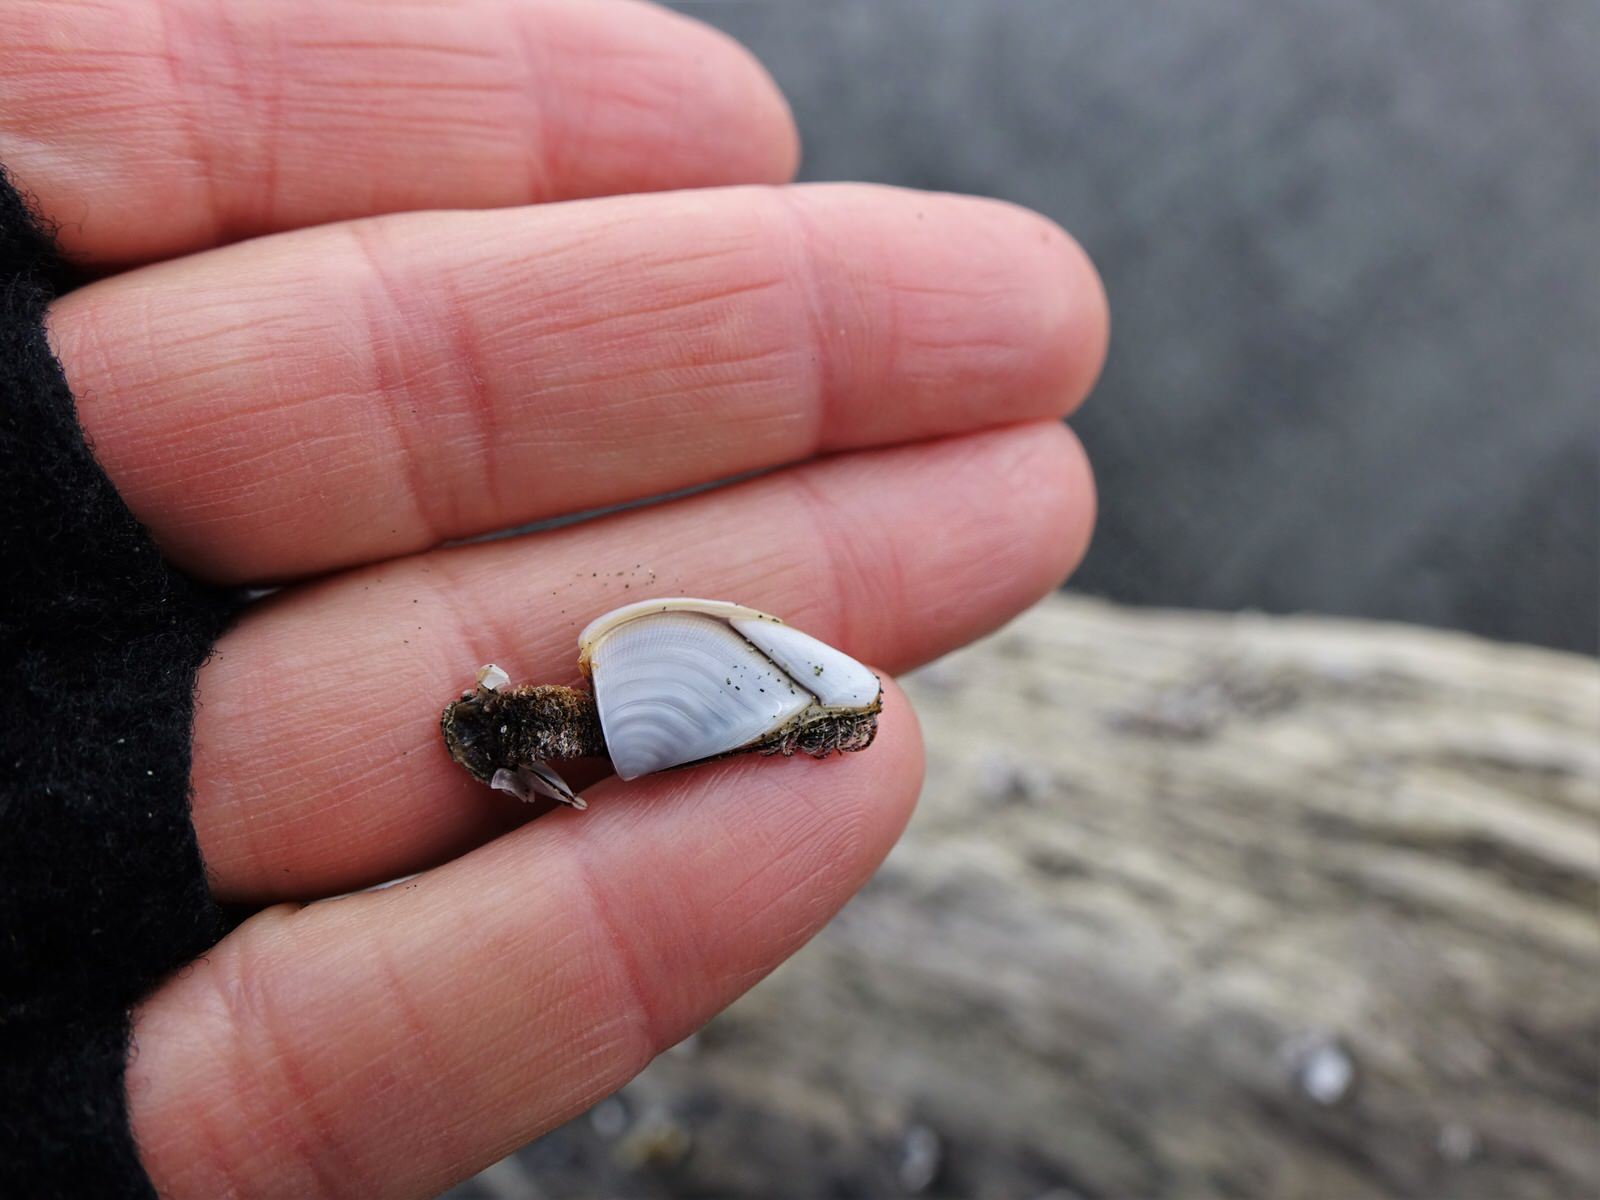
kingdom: Animalia
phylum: Arthropoda
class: Maxillopoda
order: Pedunculata
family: Lepadidae
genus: Lepas
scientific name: Lepas anatifera
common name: Common goose barnacle
